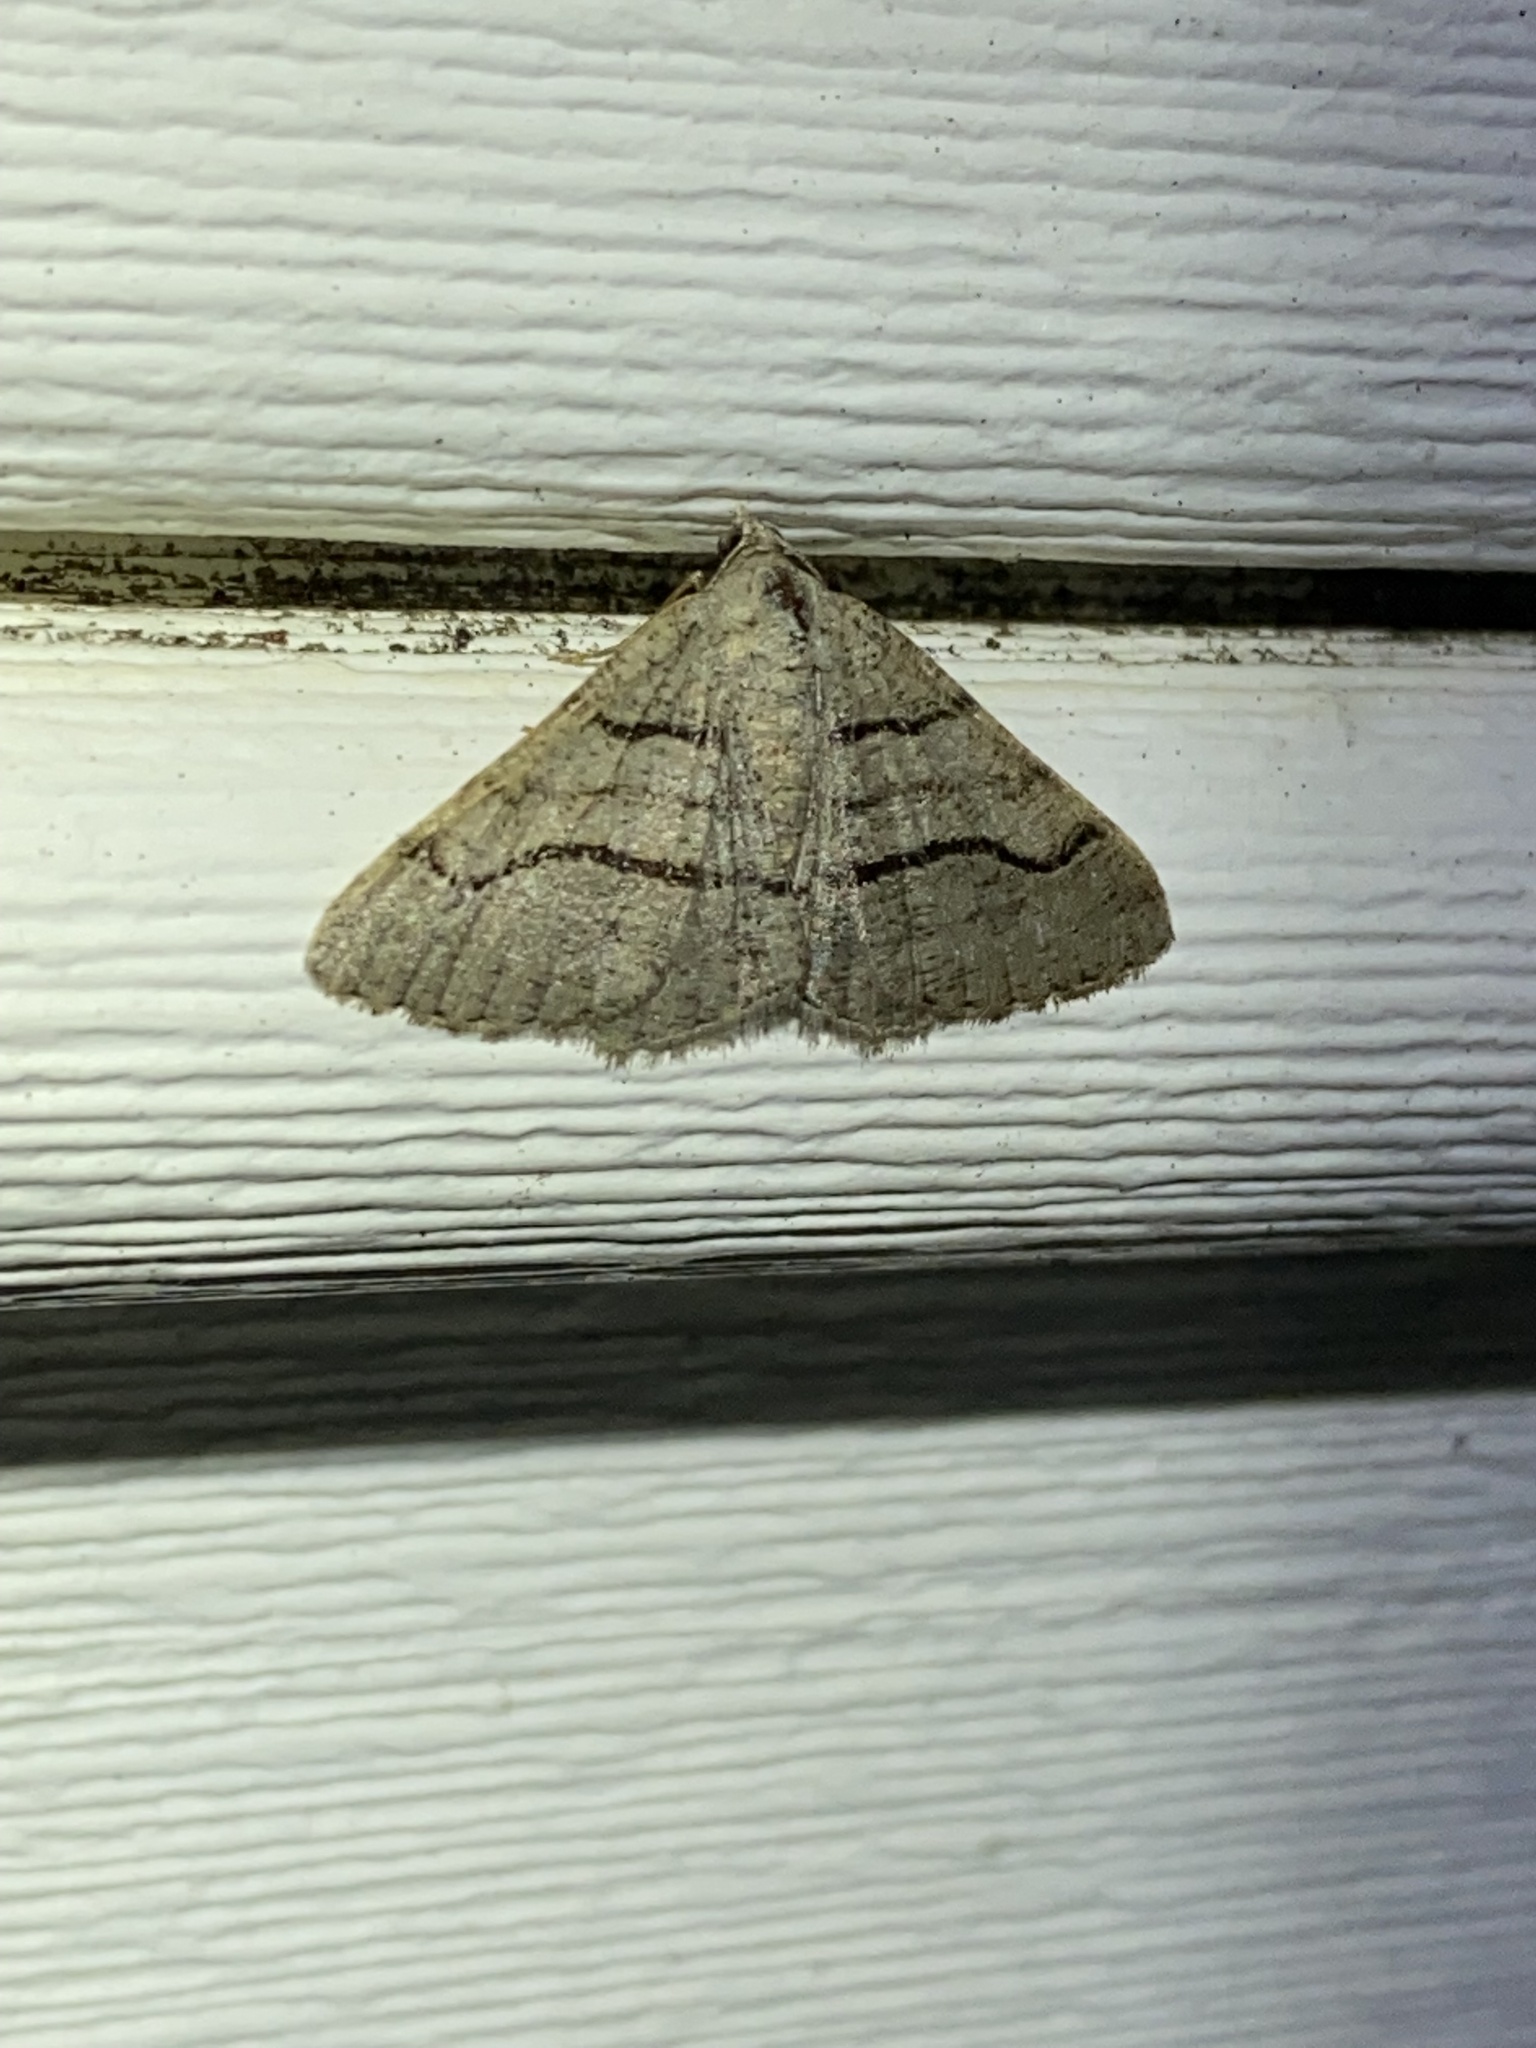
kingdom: Animalia
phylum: Arthropoda
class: Insecta
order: Lepidoptera
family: Geometridae
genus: Digrammia
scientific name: Digrammia continuata
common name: Curve-lined angle
